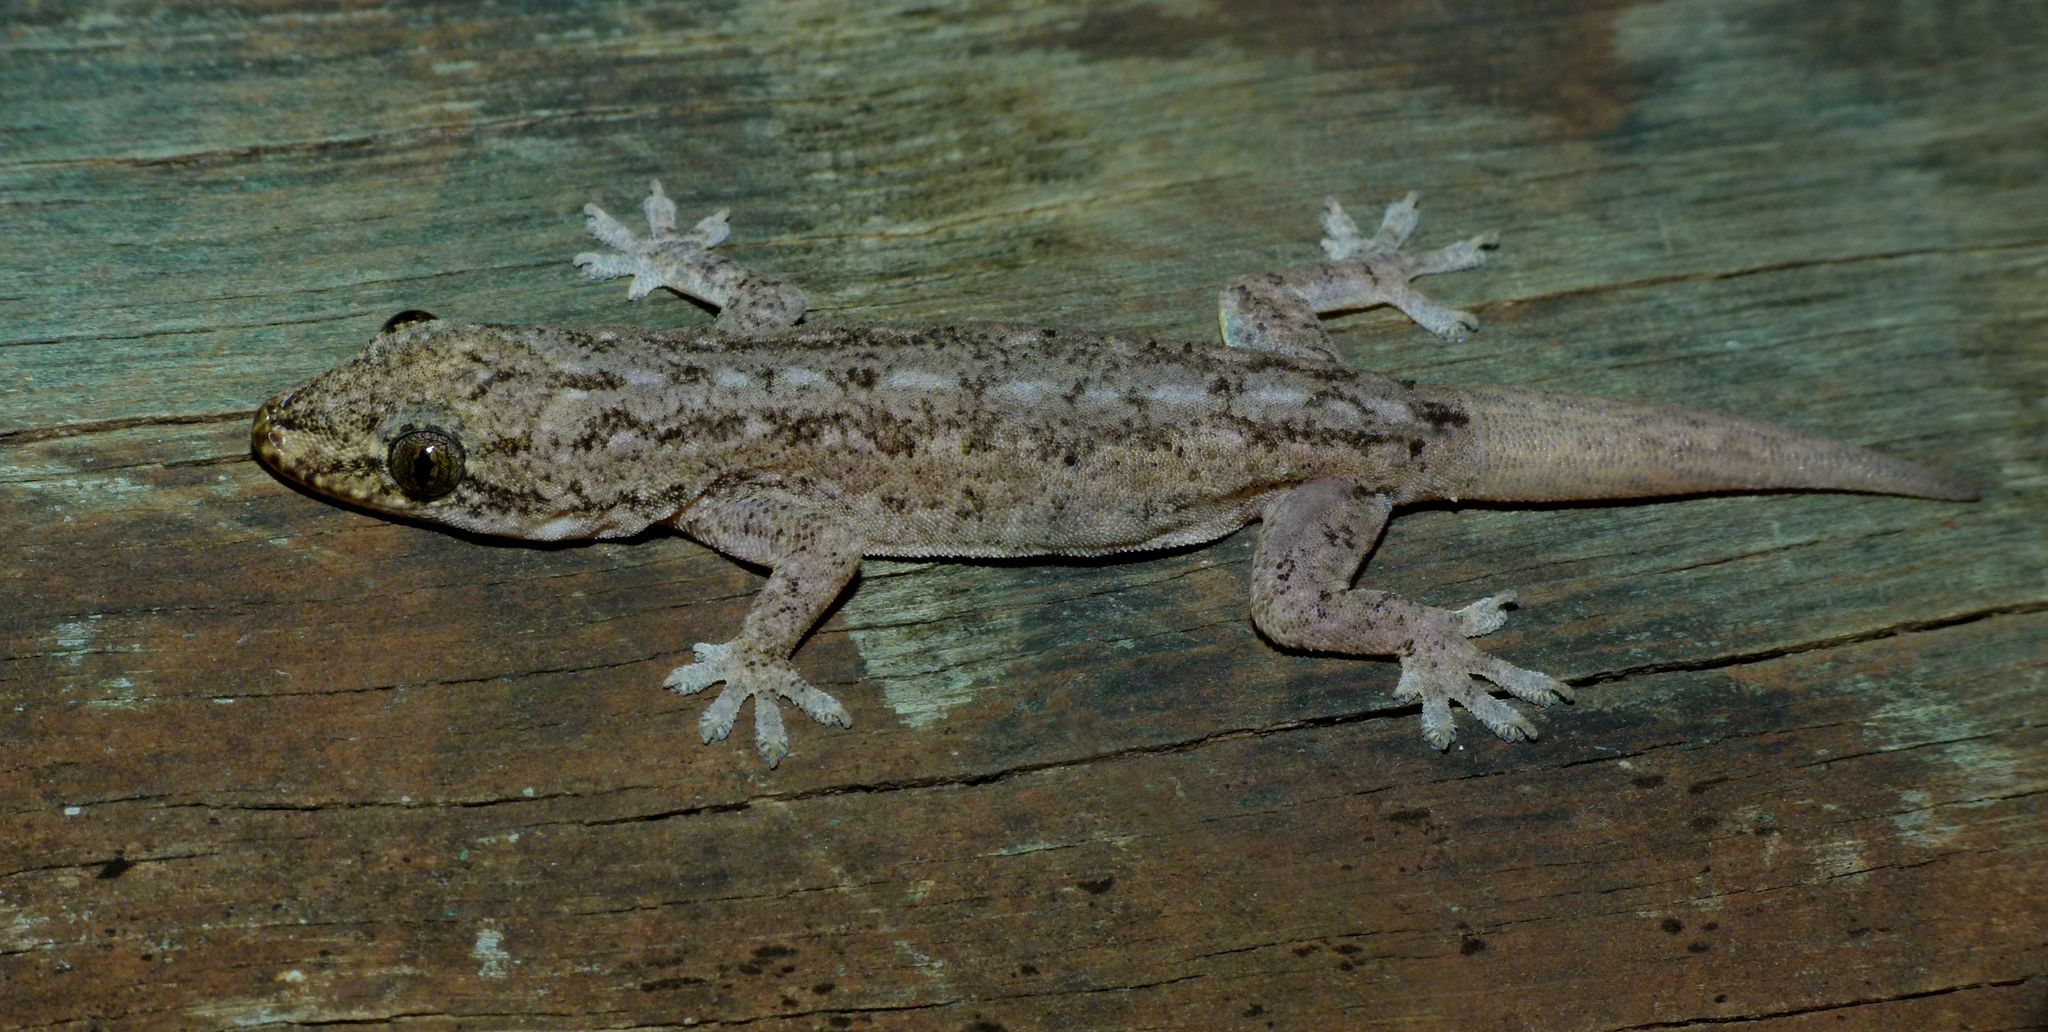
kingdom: Animalia
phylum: Chordata
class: Squamata
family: Gekkonidae
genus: Hemidactylus
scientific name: Hemidactylus frenatus
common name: Common house gecko
